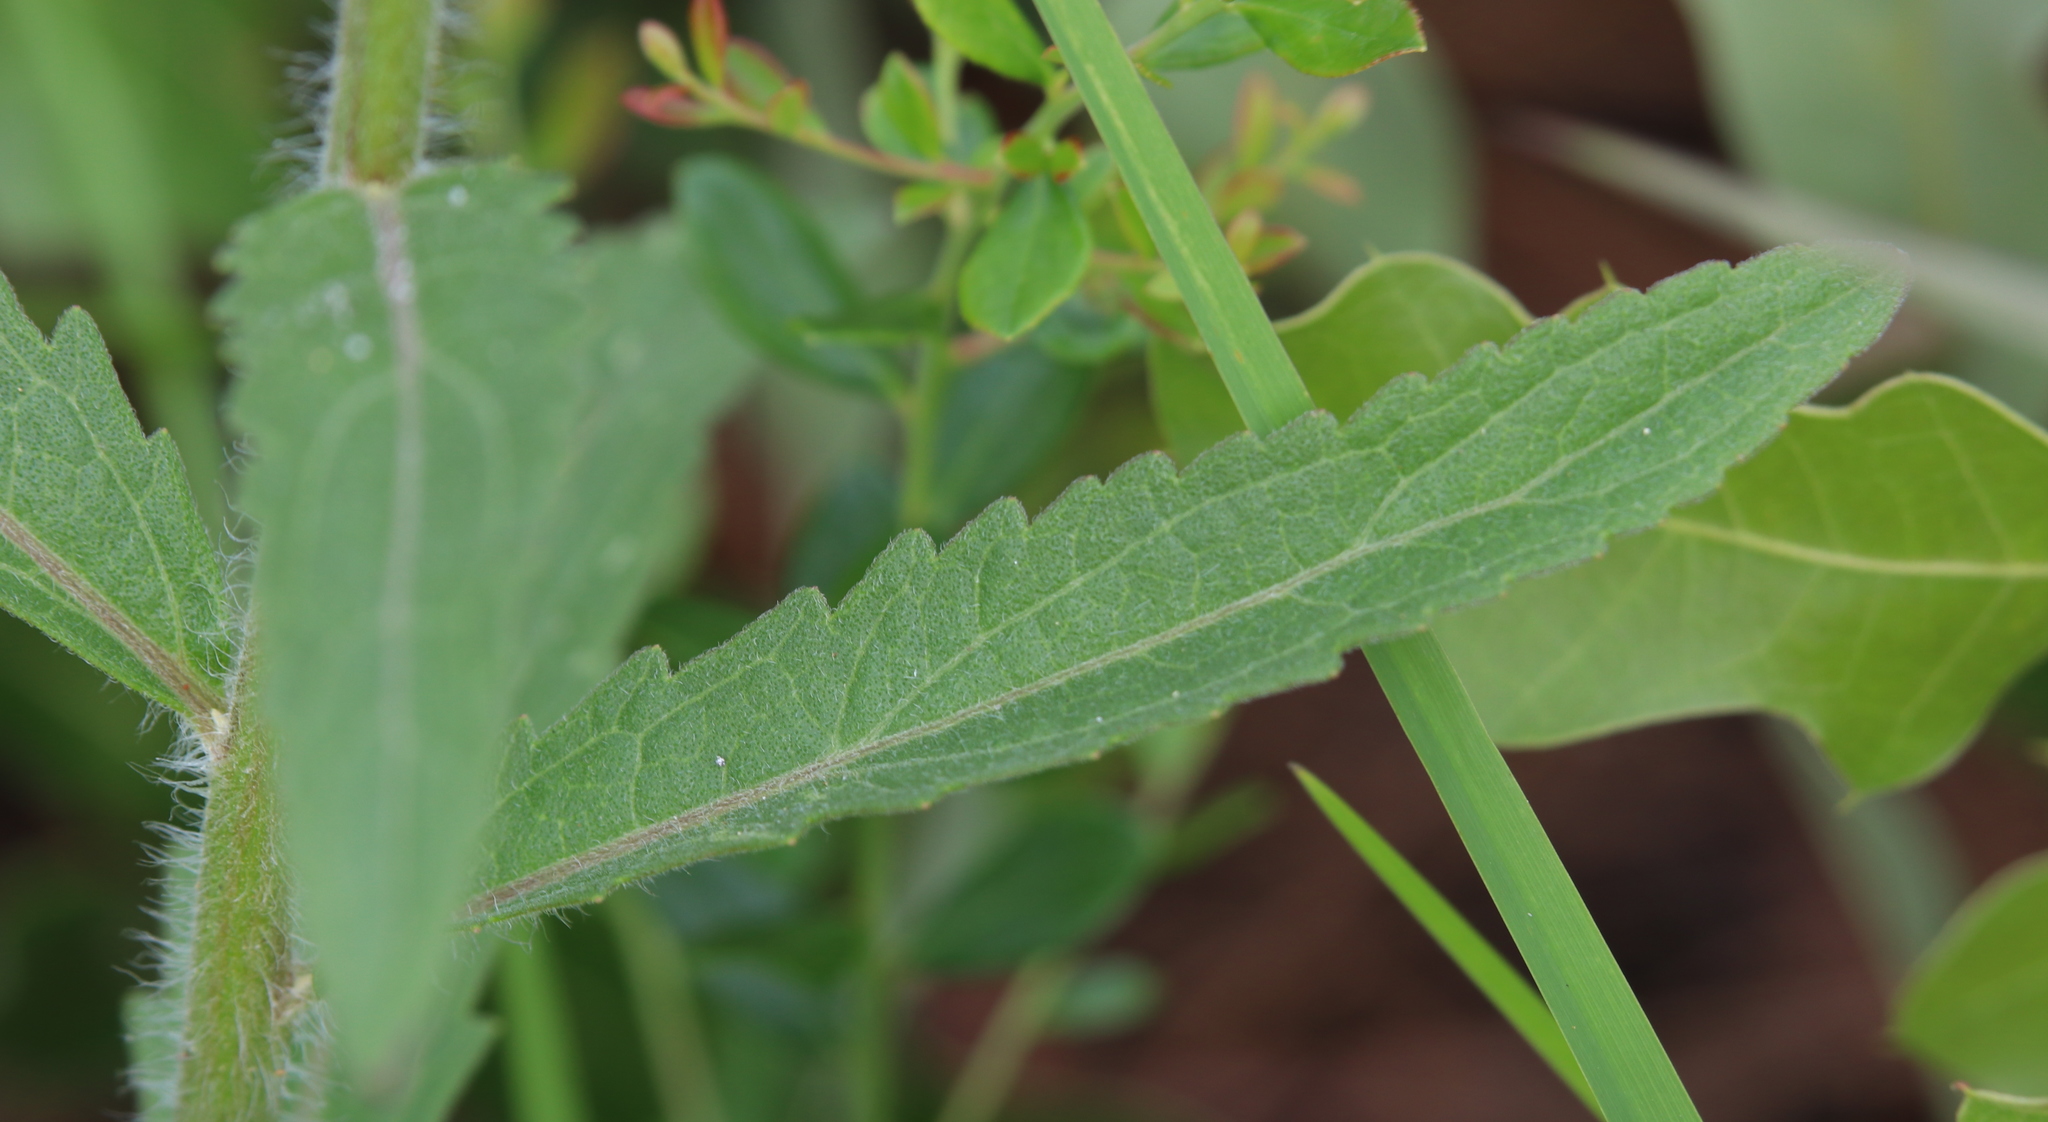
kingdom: Plantae
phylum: Tracheophyta
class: Magnoliopsida
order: Asterales
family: Asteraceae
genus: Eupatorium
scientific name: Eupatorium album
